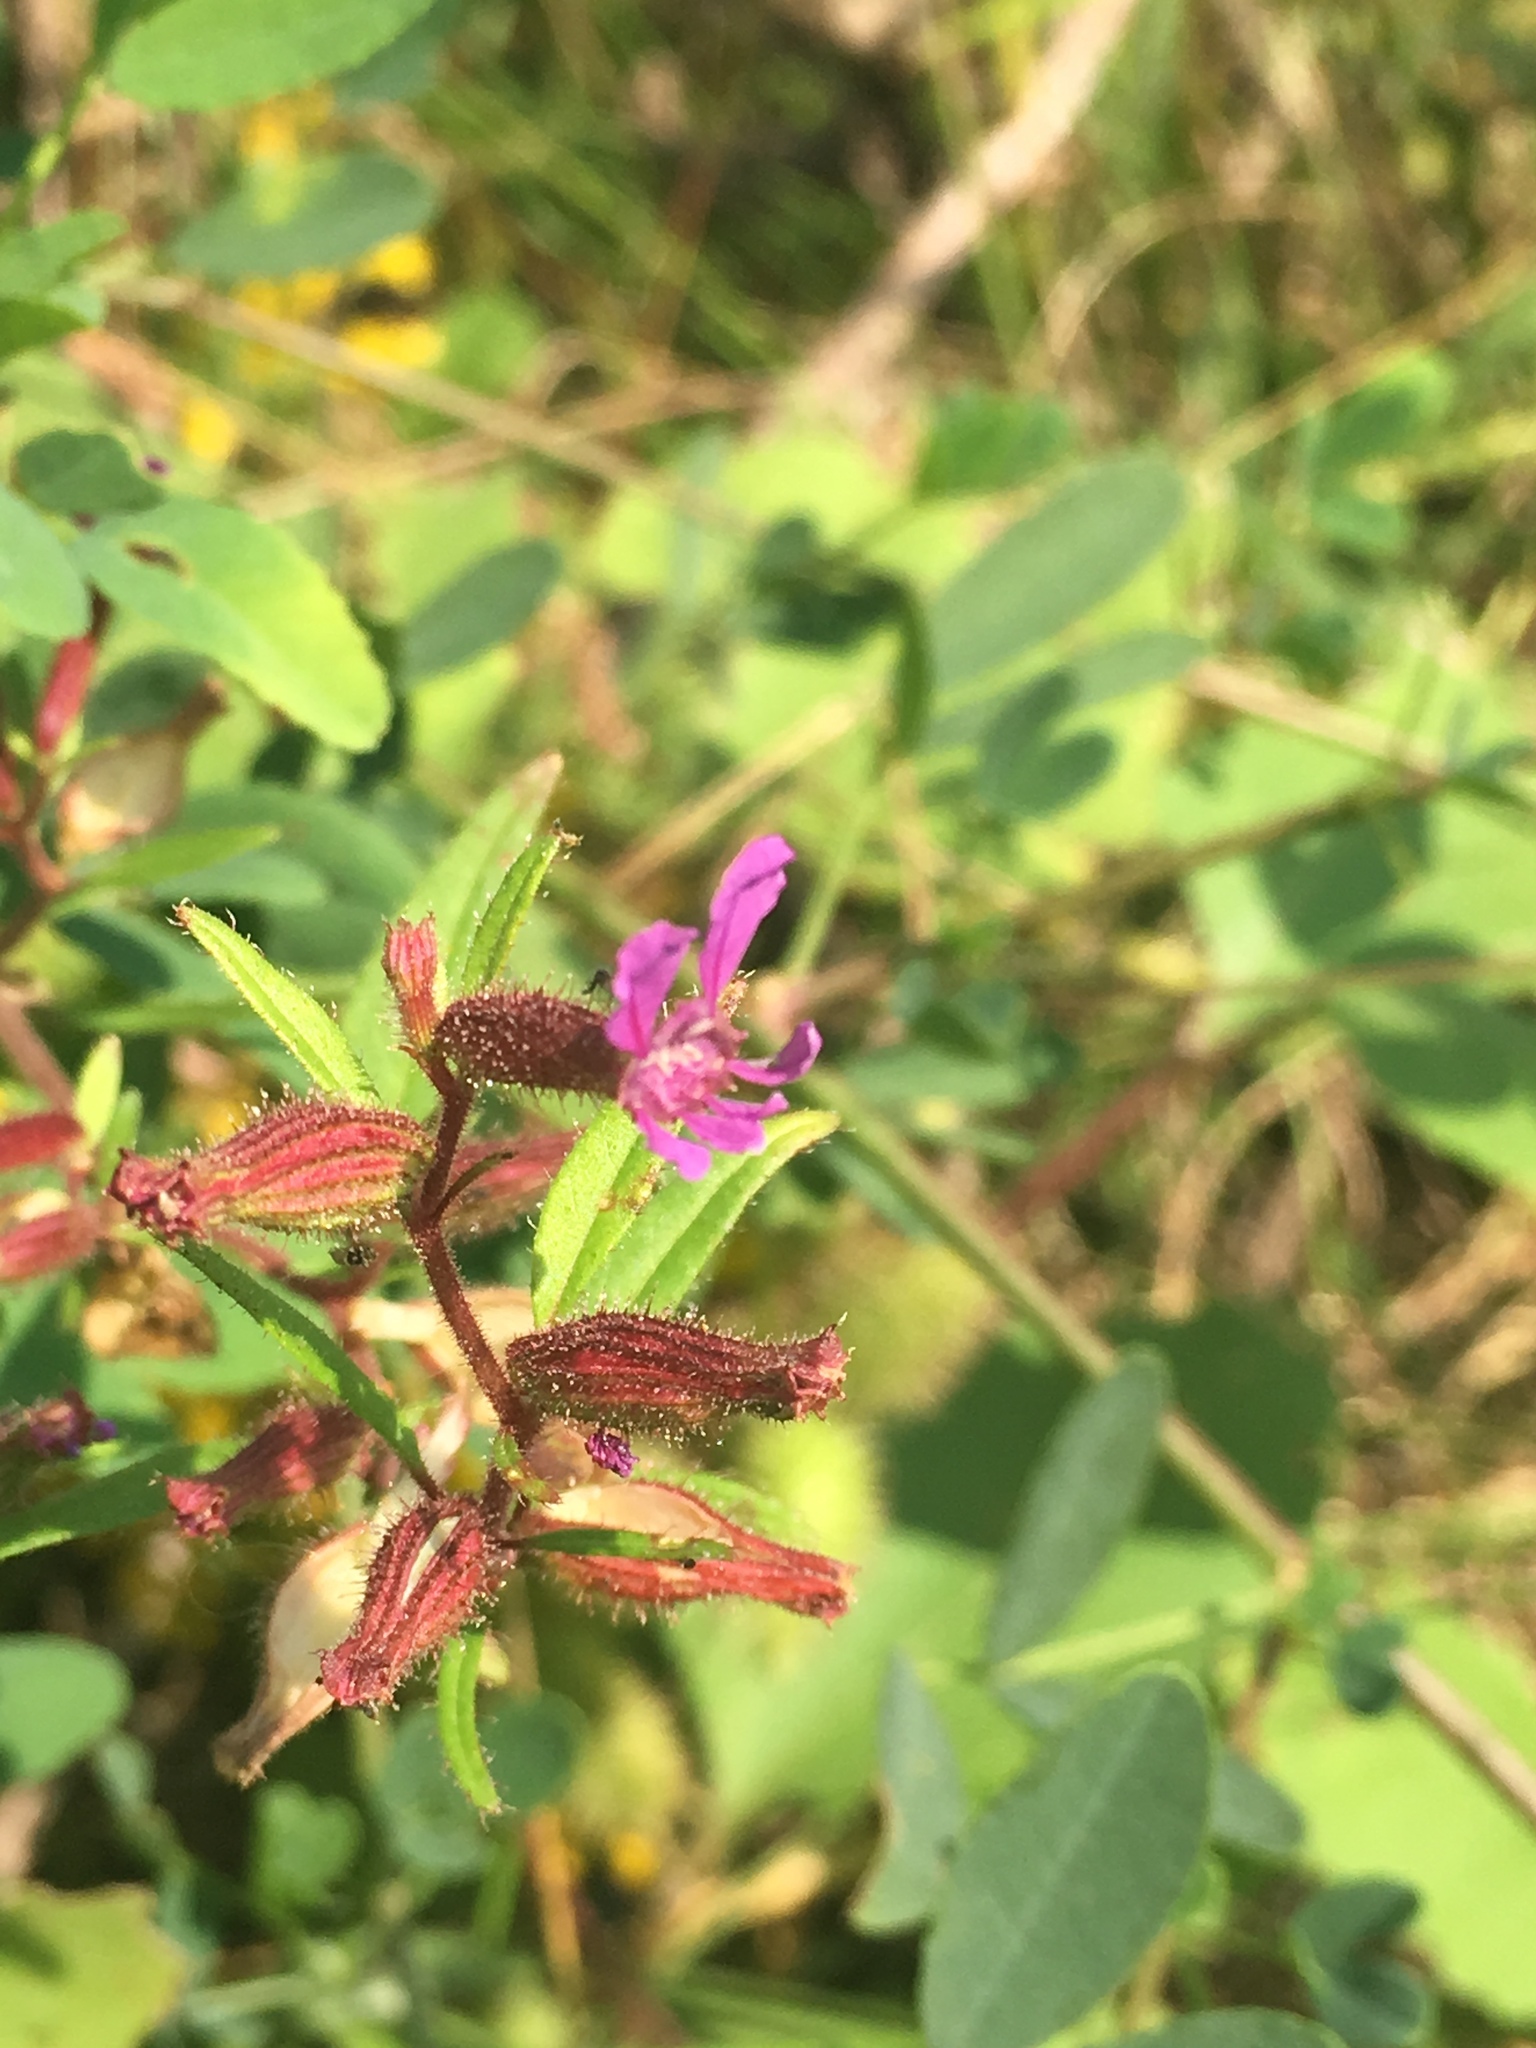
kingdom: Plantae
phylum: Tracheophyta
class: Magnoliopsida
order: Myrtales
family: Lythraceae
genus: Cuphea
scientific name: Cuphea viscosissima
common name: Clammy cuphea
